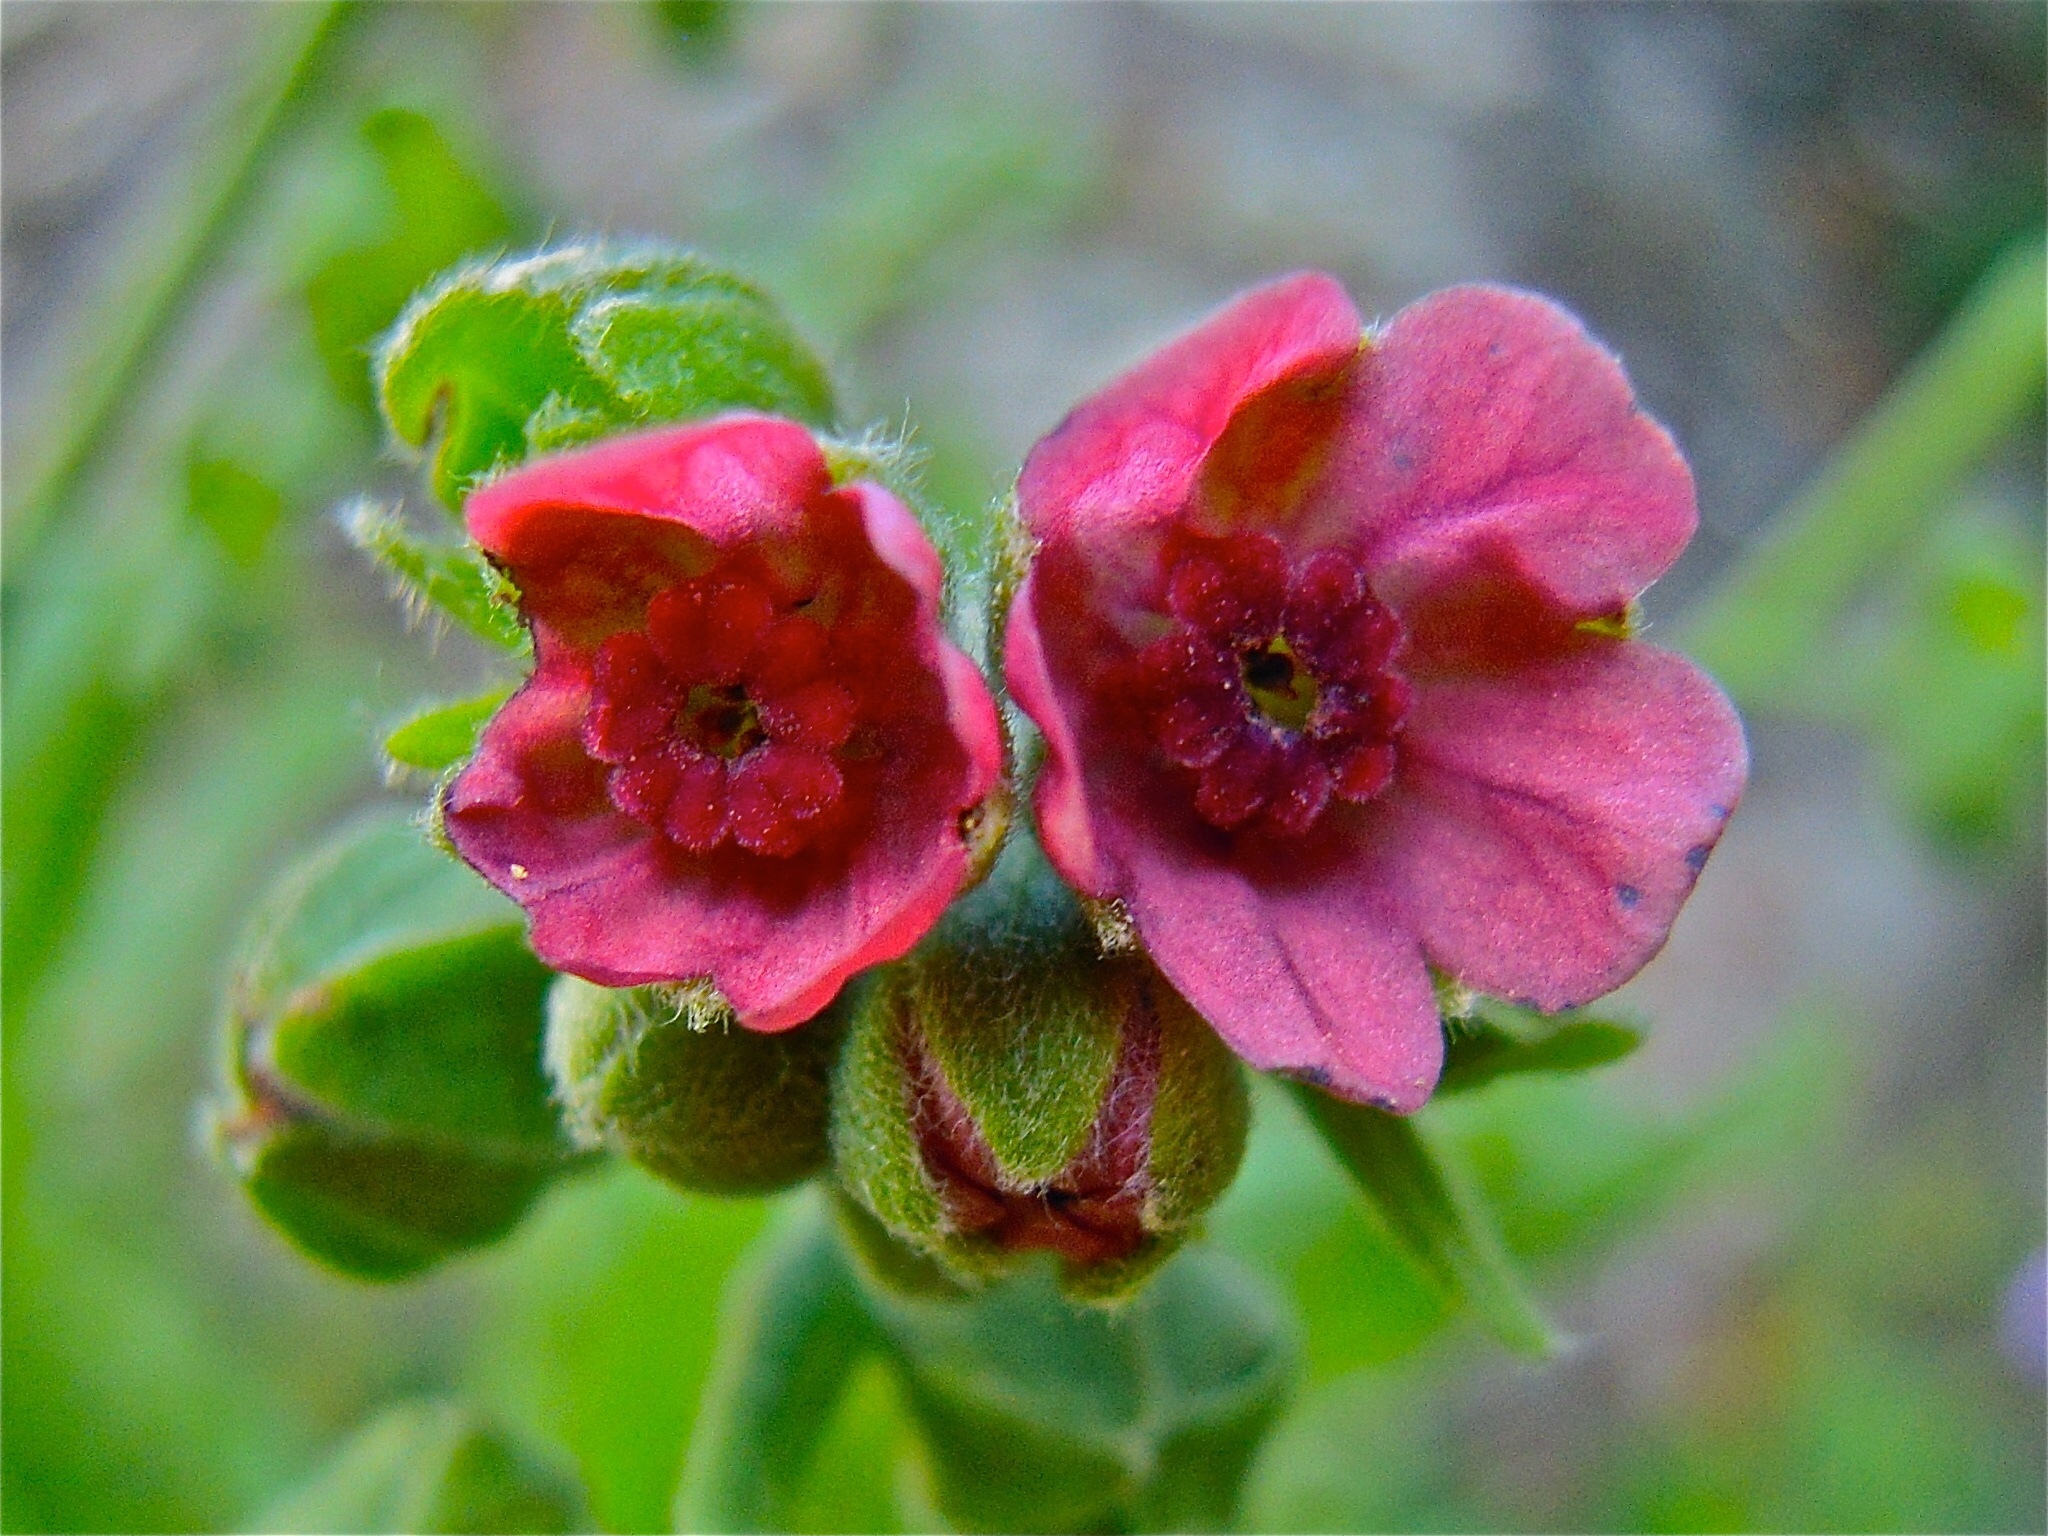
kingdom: Plantae
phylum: Tracheophyta
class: Magnoliopsida
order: Boraginales
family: Boraginaceae
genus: Cynoglossum
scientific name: Cynoglossum officinale
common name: Hound's-tongue
